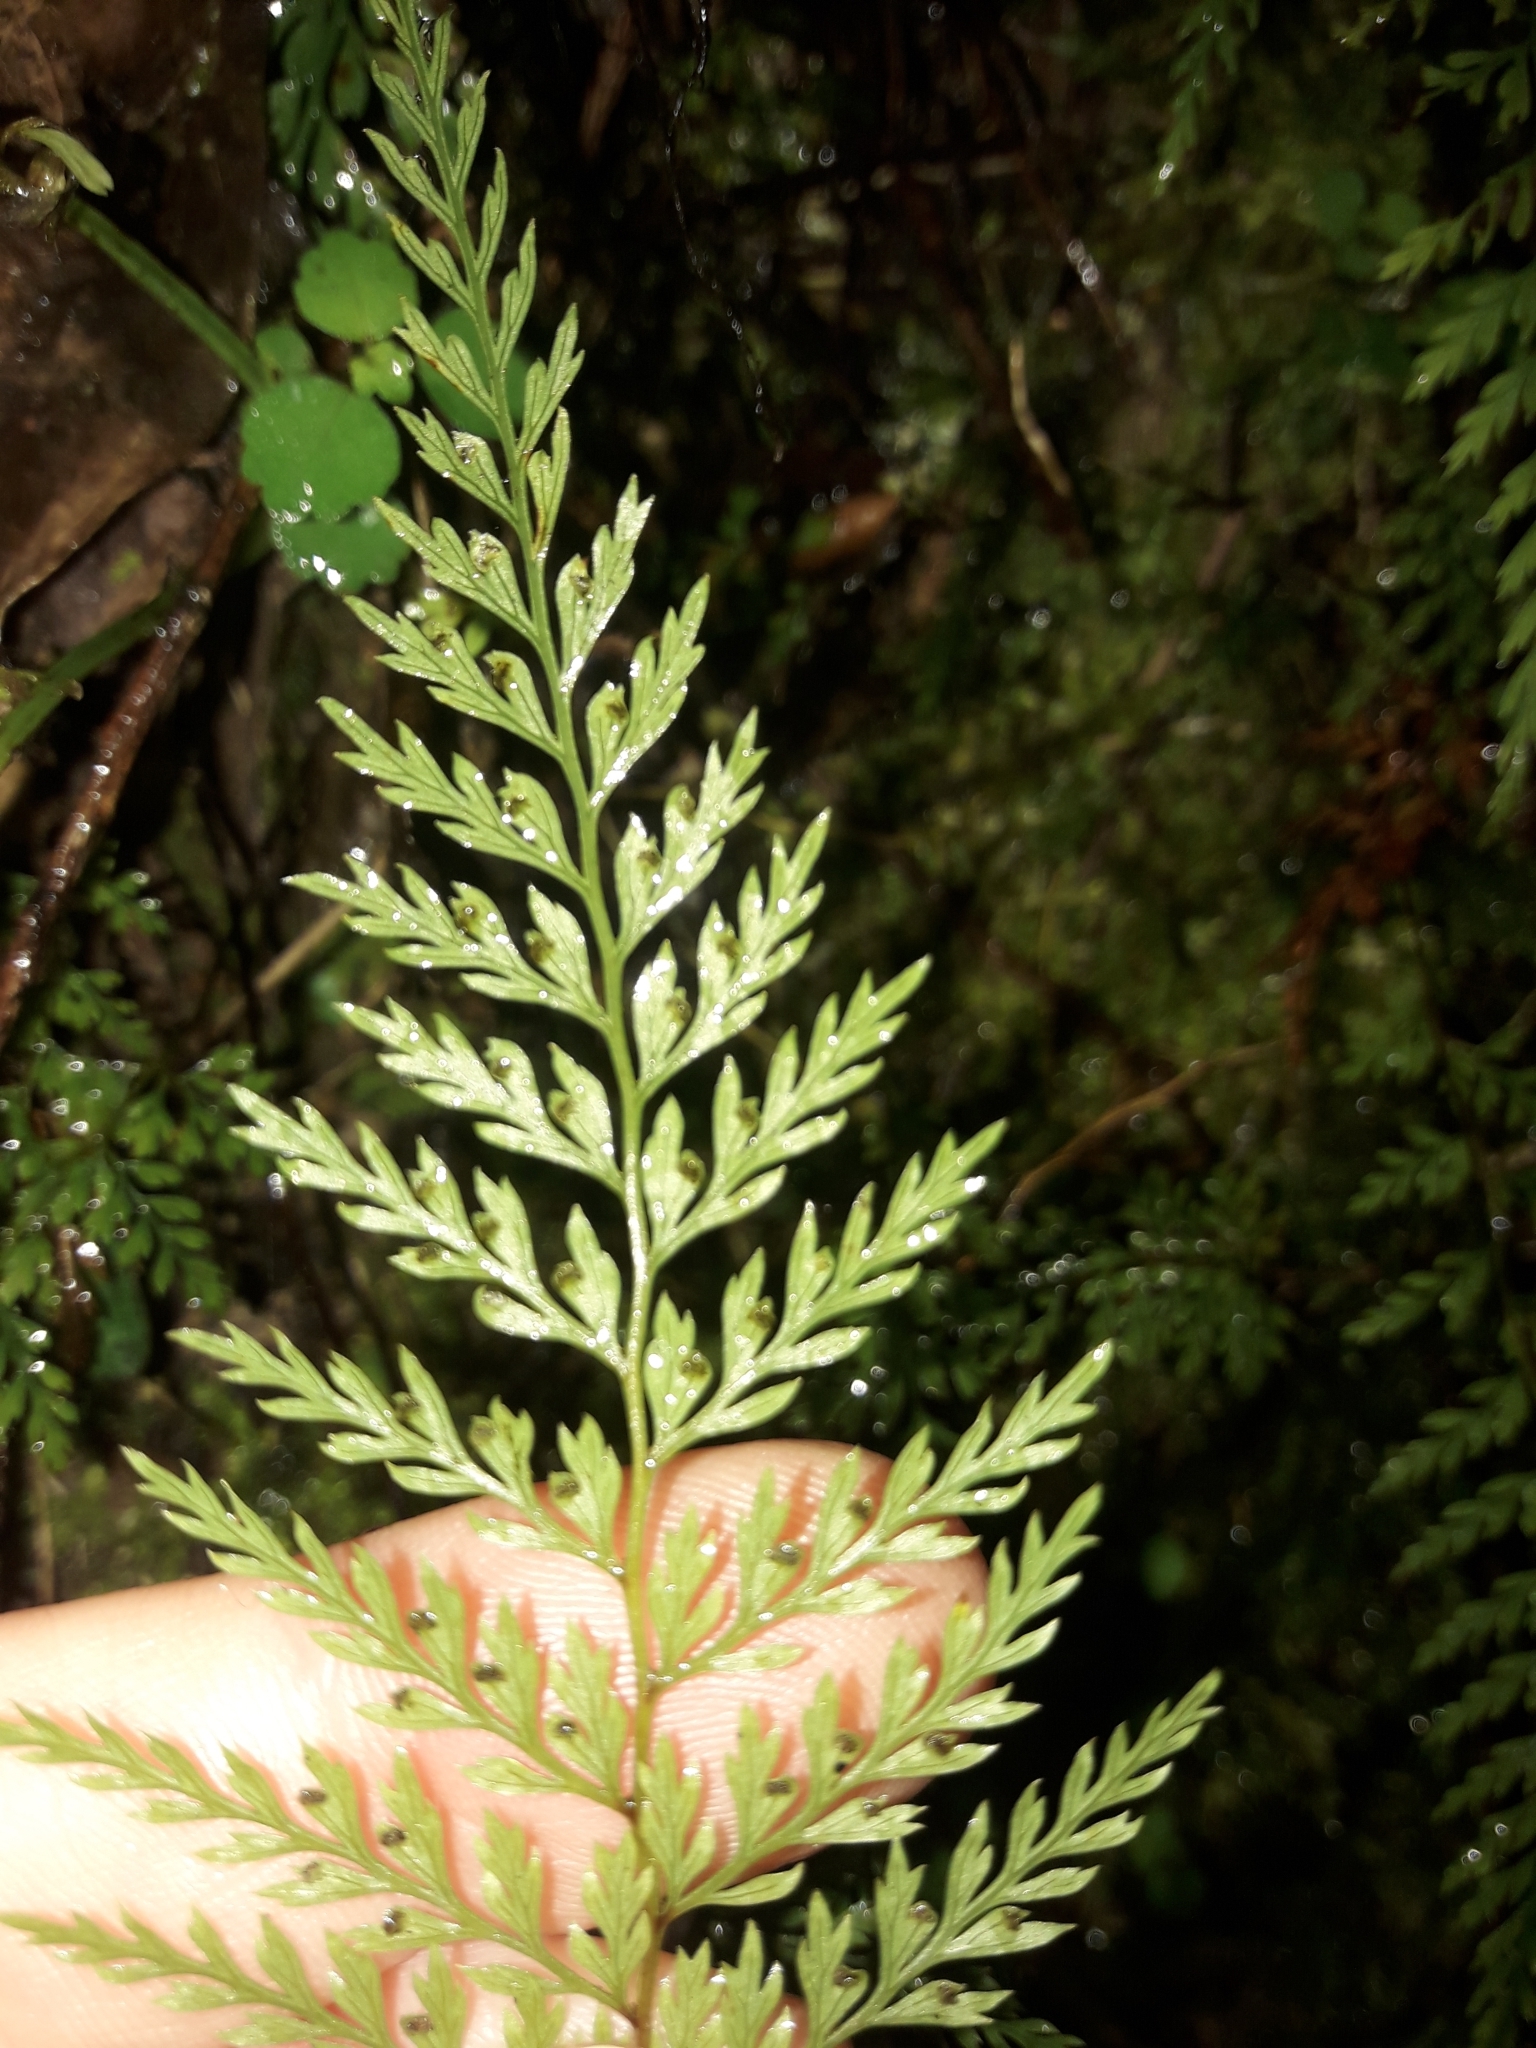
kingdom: Plantae
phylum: Tracheophyta
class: Polypodiopsida
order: Polypodiales
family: Dennstaedtiaceae
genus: Dennstaedtia
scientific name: Dennstaedtia novae-zelandiae
